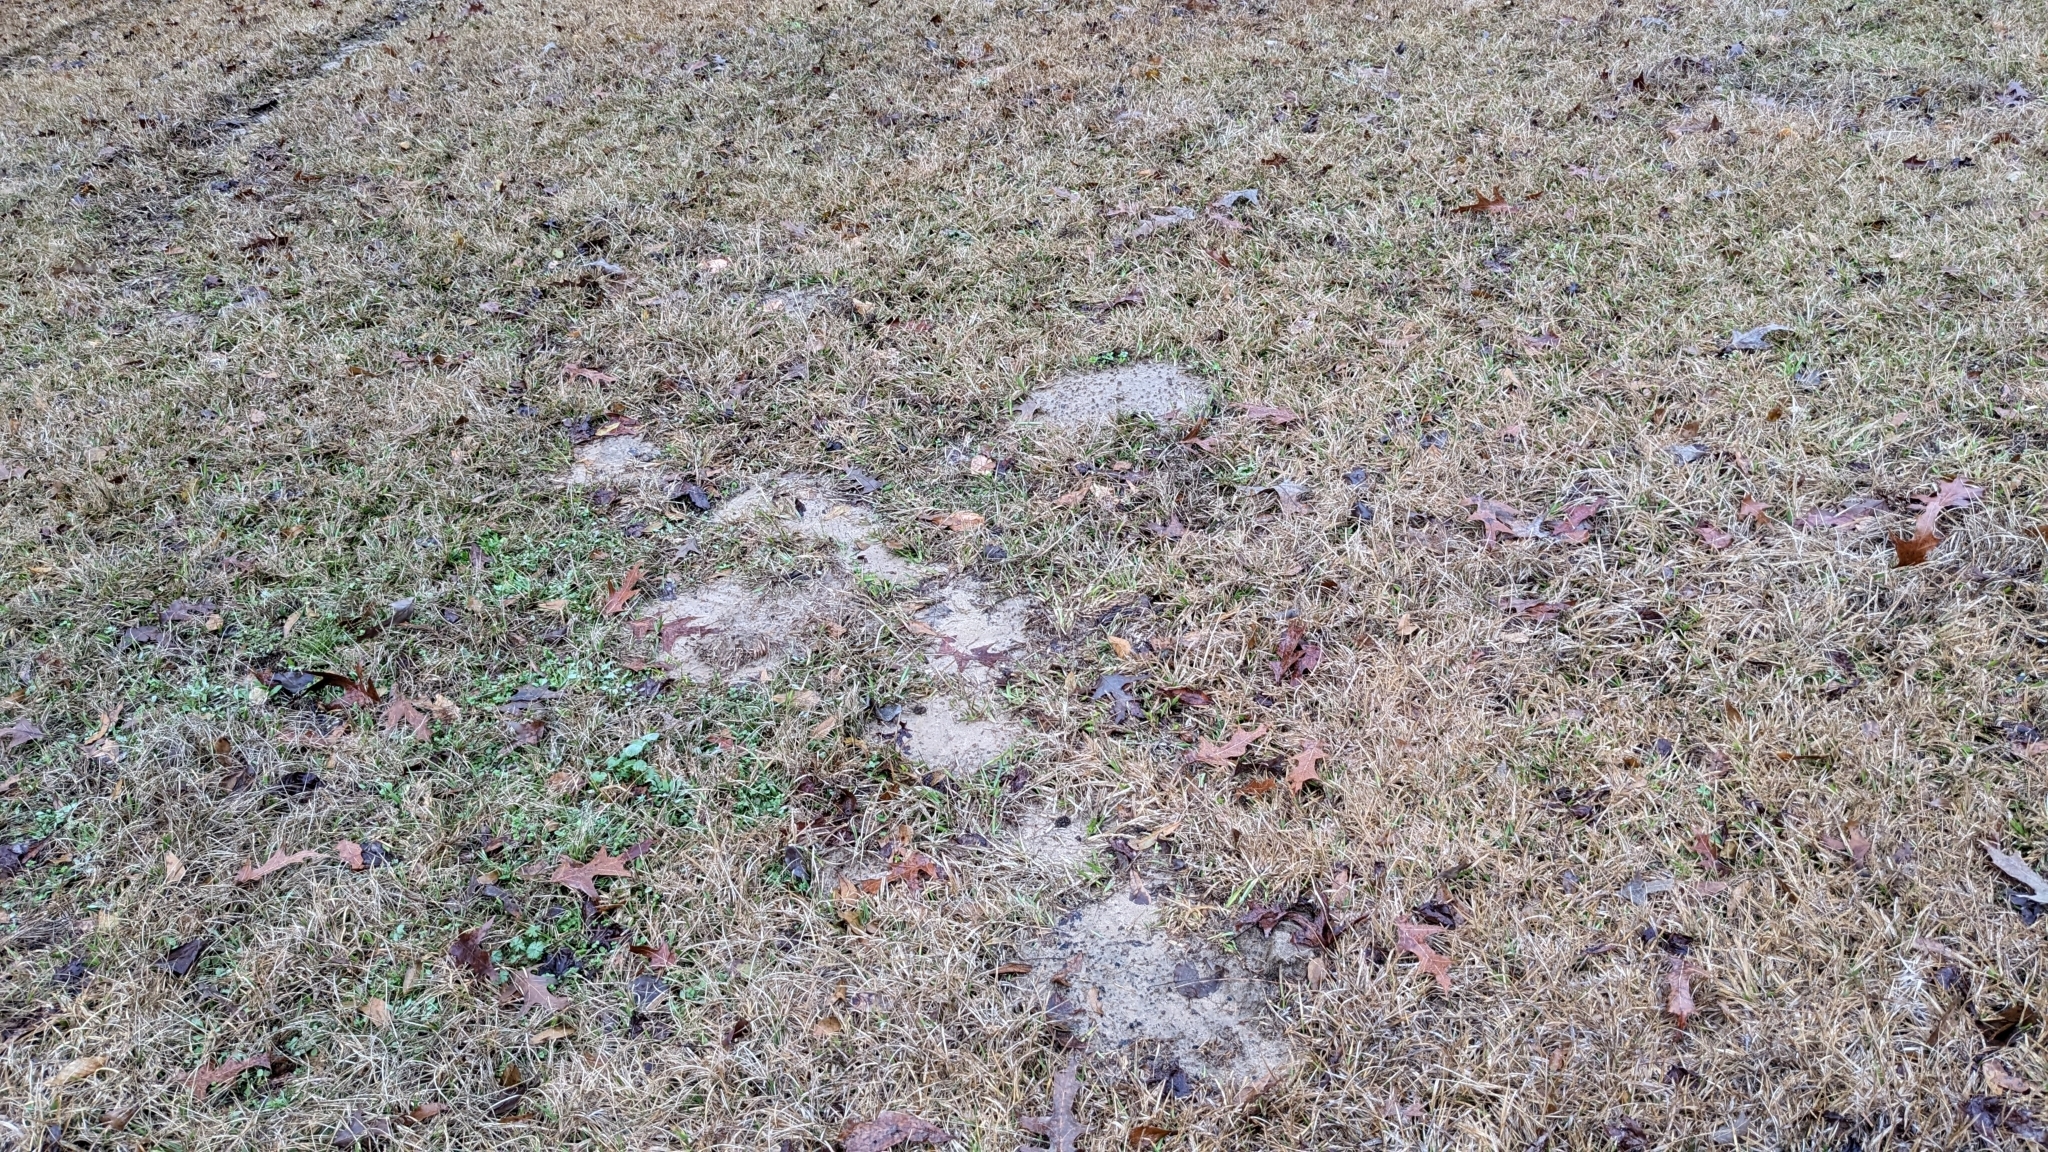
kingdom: Animalia
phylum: Chordata
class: Mammalia
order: Rodentia
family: Geomyidae
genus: Geomys
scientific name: Geomys breviceps
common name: Baird's pocket gopher
